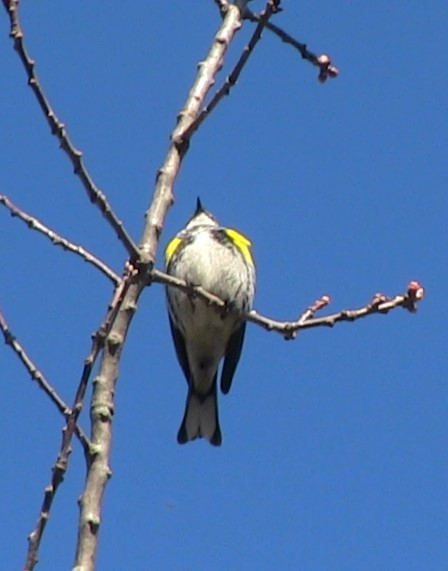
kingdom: Animalia
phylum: Chordata
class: Aves
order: Passeriformes
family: Parulidae
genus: Setophaga
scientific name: Setophaga coronata
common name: Myrtle warbler
